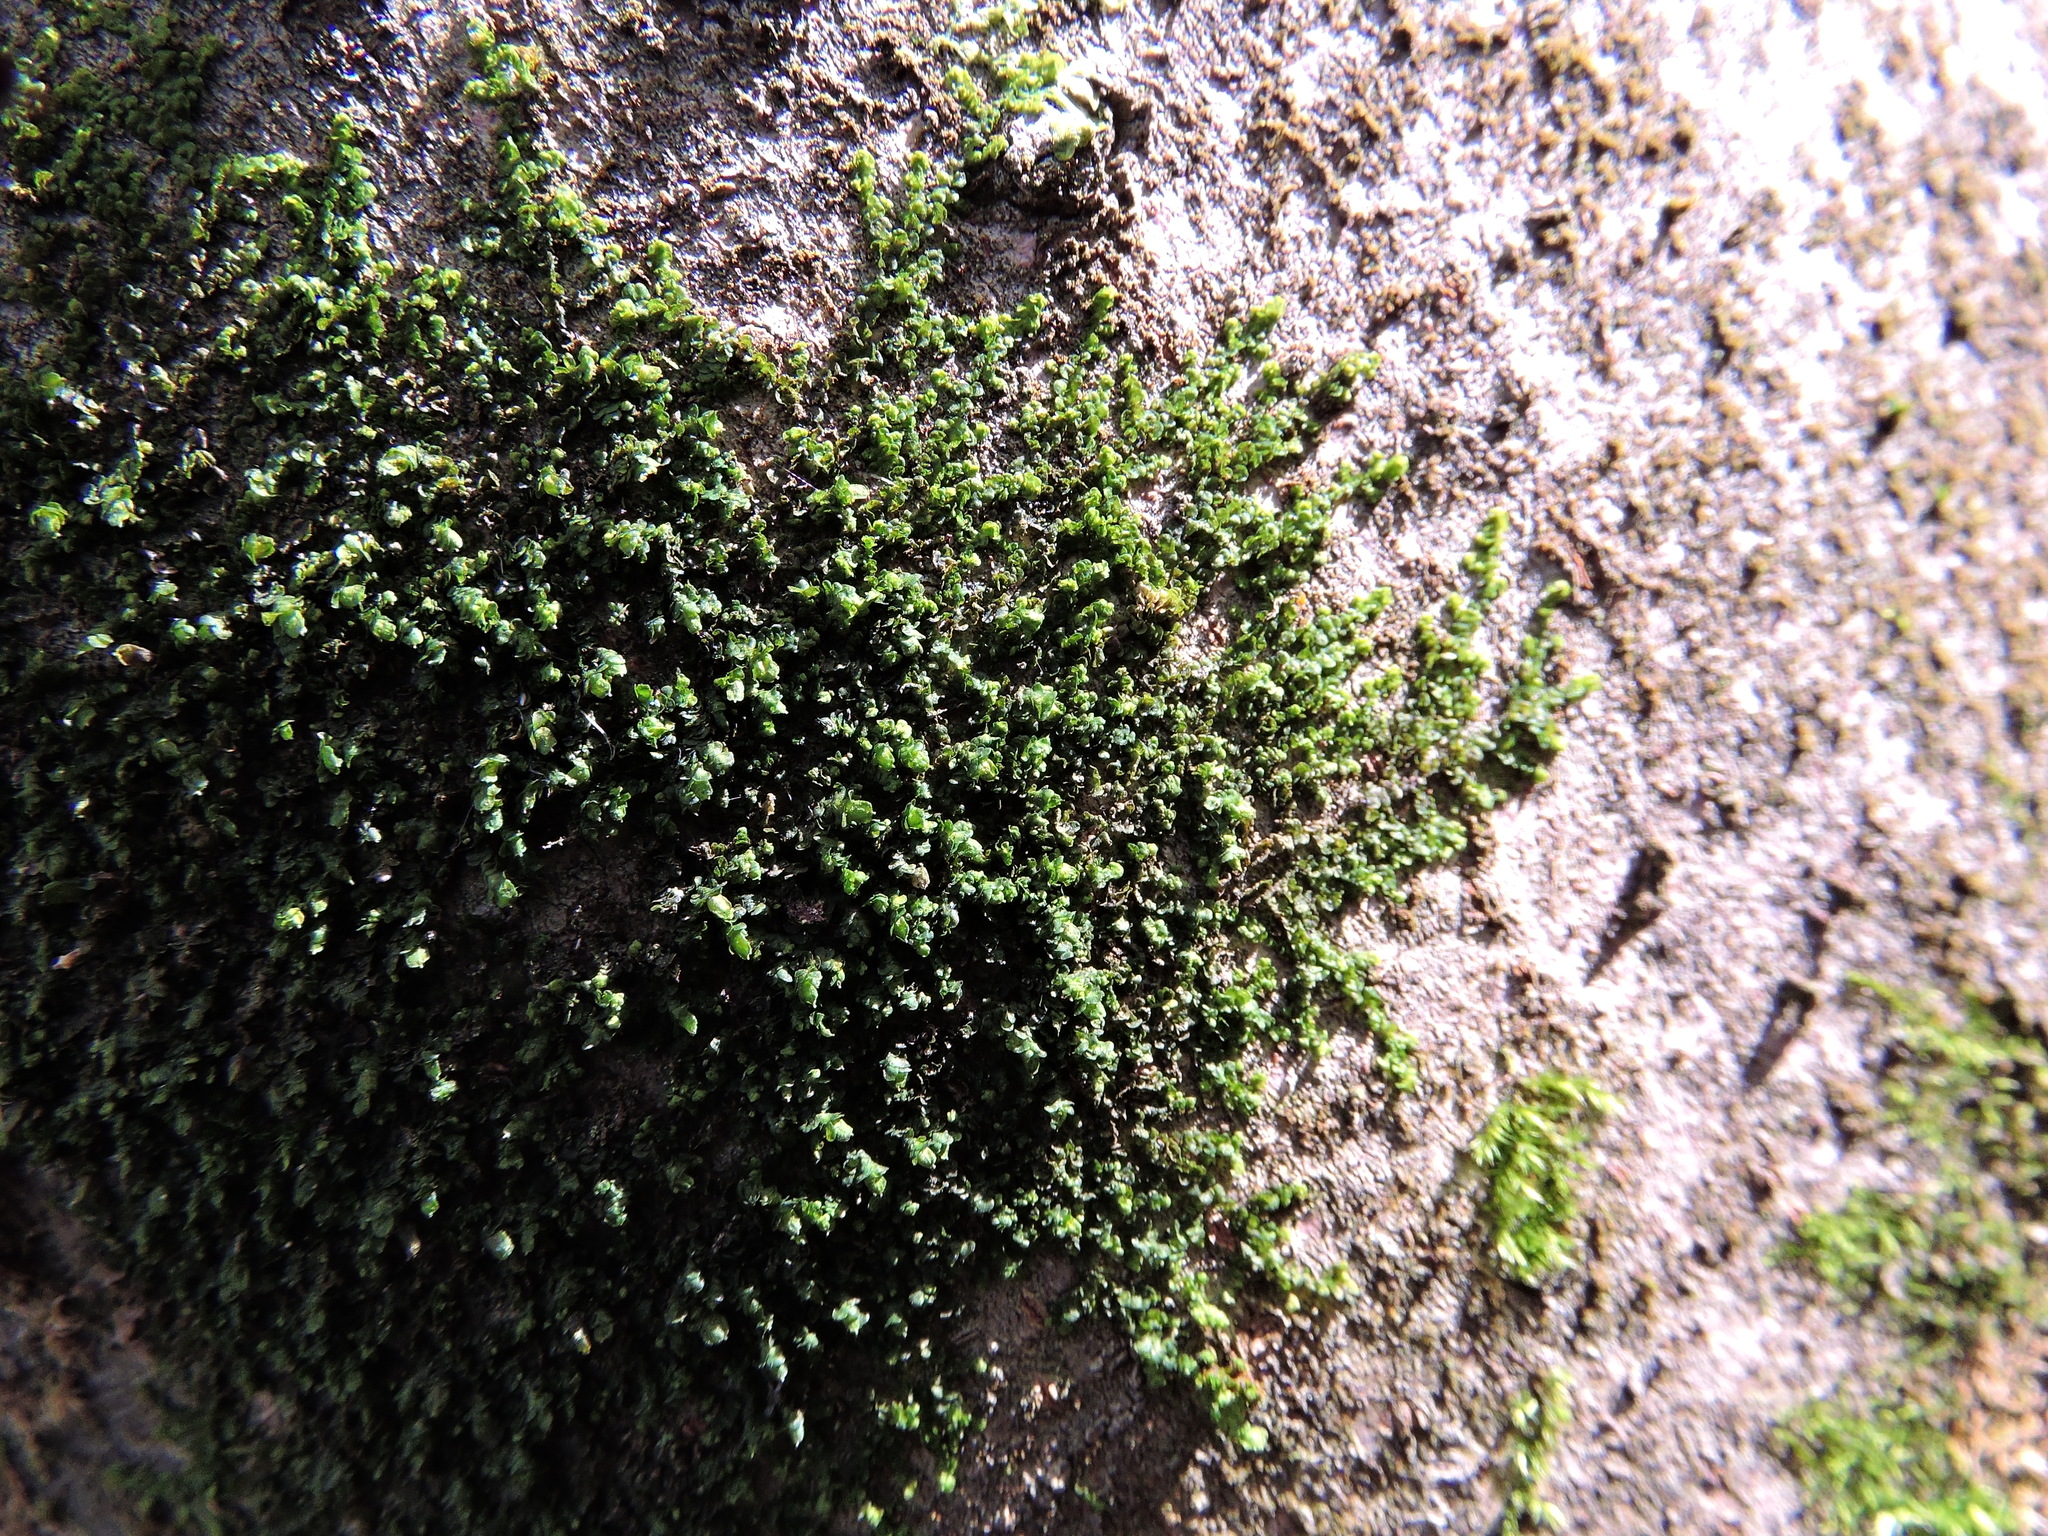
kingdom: Plantae
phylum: Marchantiophyta
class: Jungermanniopsida
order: Porellales
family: Frullaniaceae
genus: Frullania
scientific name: Frullania dilatata
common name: Dilated scalewort
